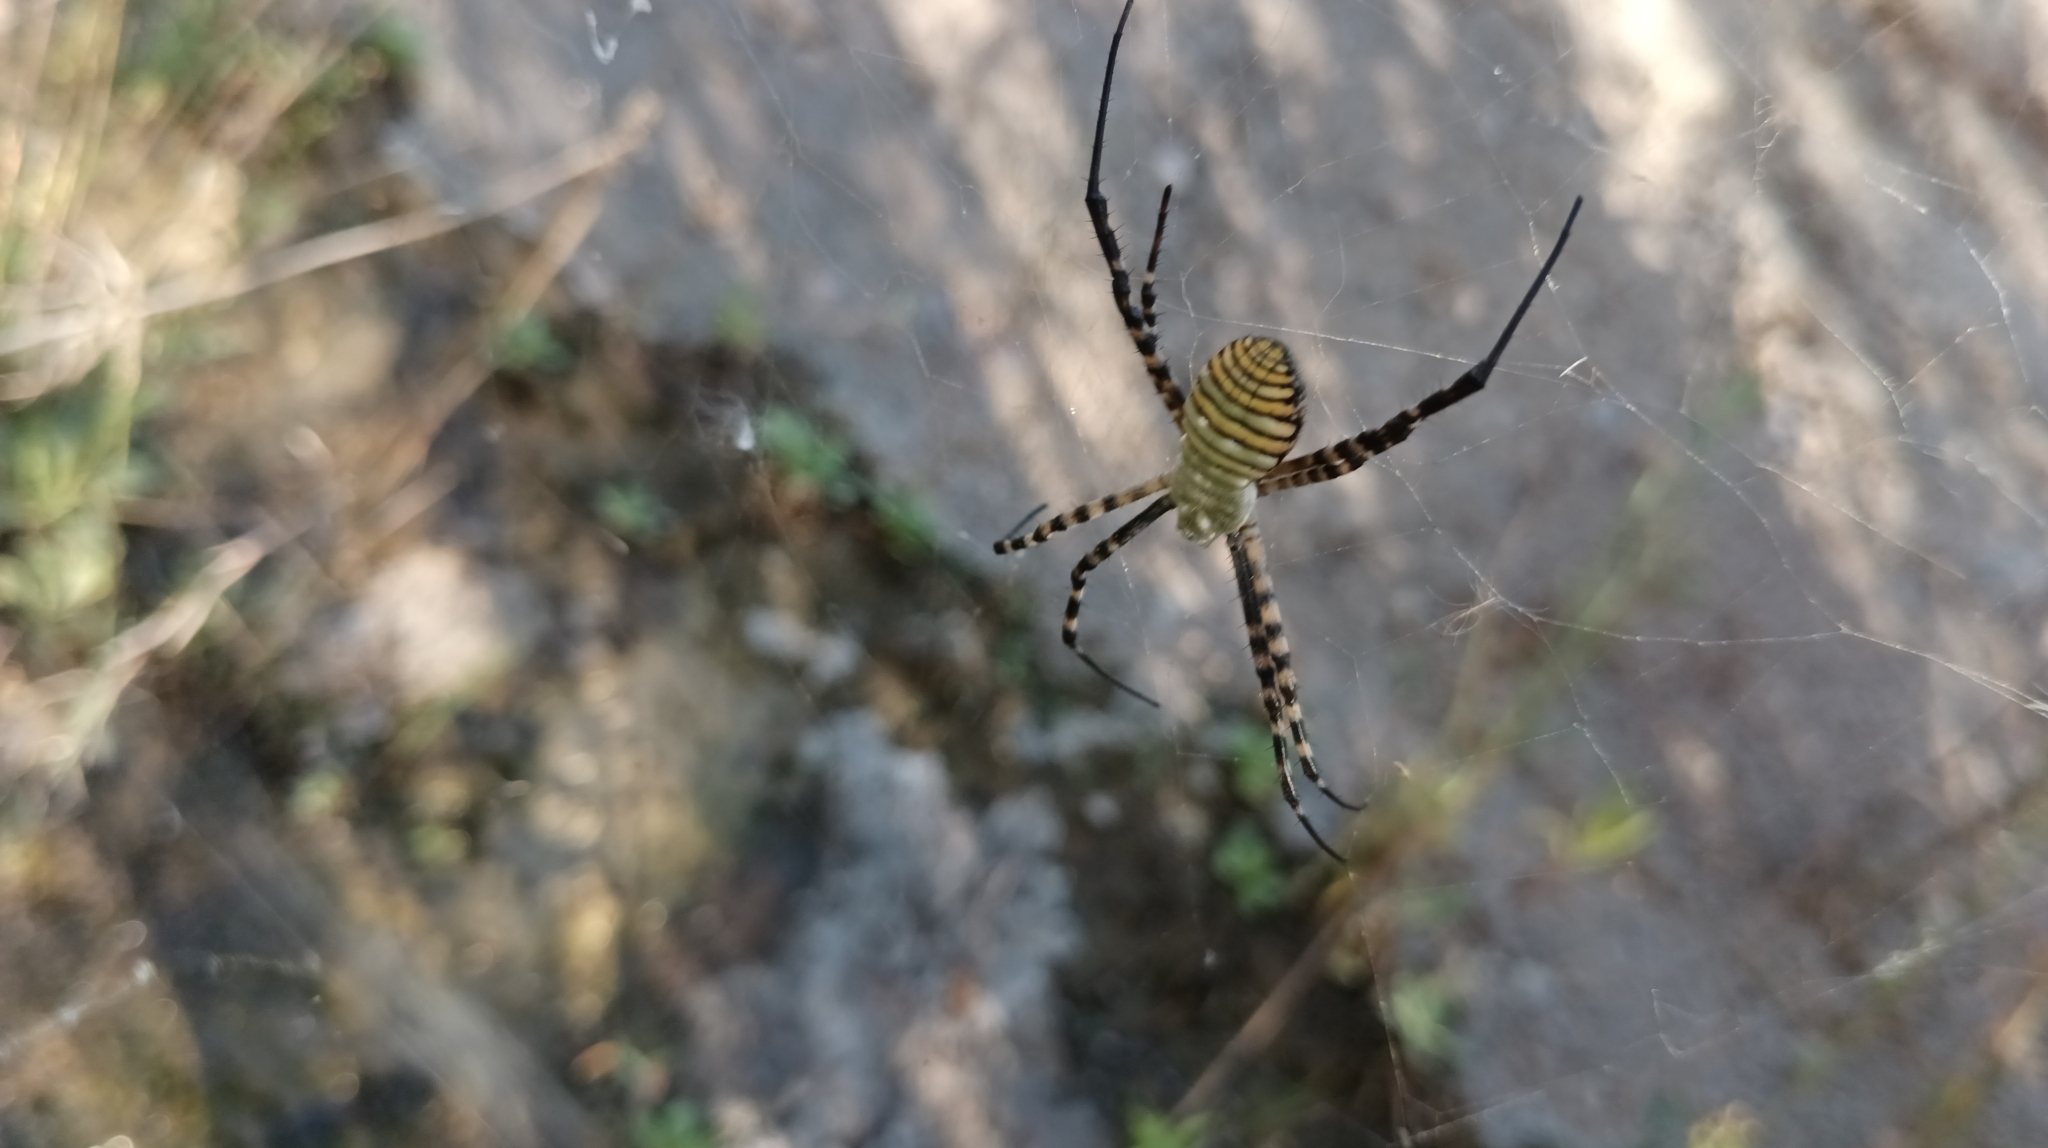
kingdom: Animalia
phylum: Arthropoda
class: Arachnida
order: Araneae
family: Araneidae
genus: Argiope
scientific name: Argiope trifasciata
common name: Banded garden spider
